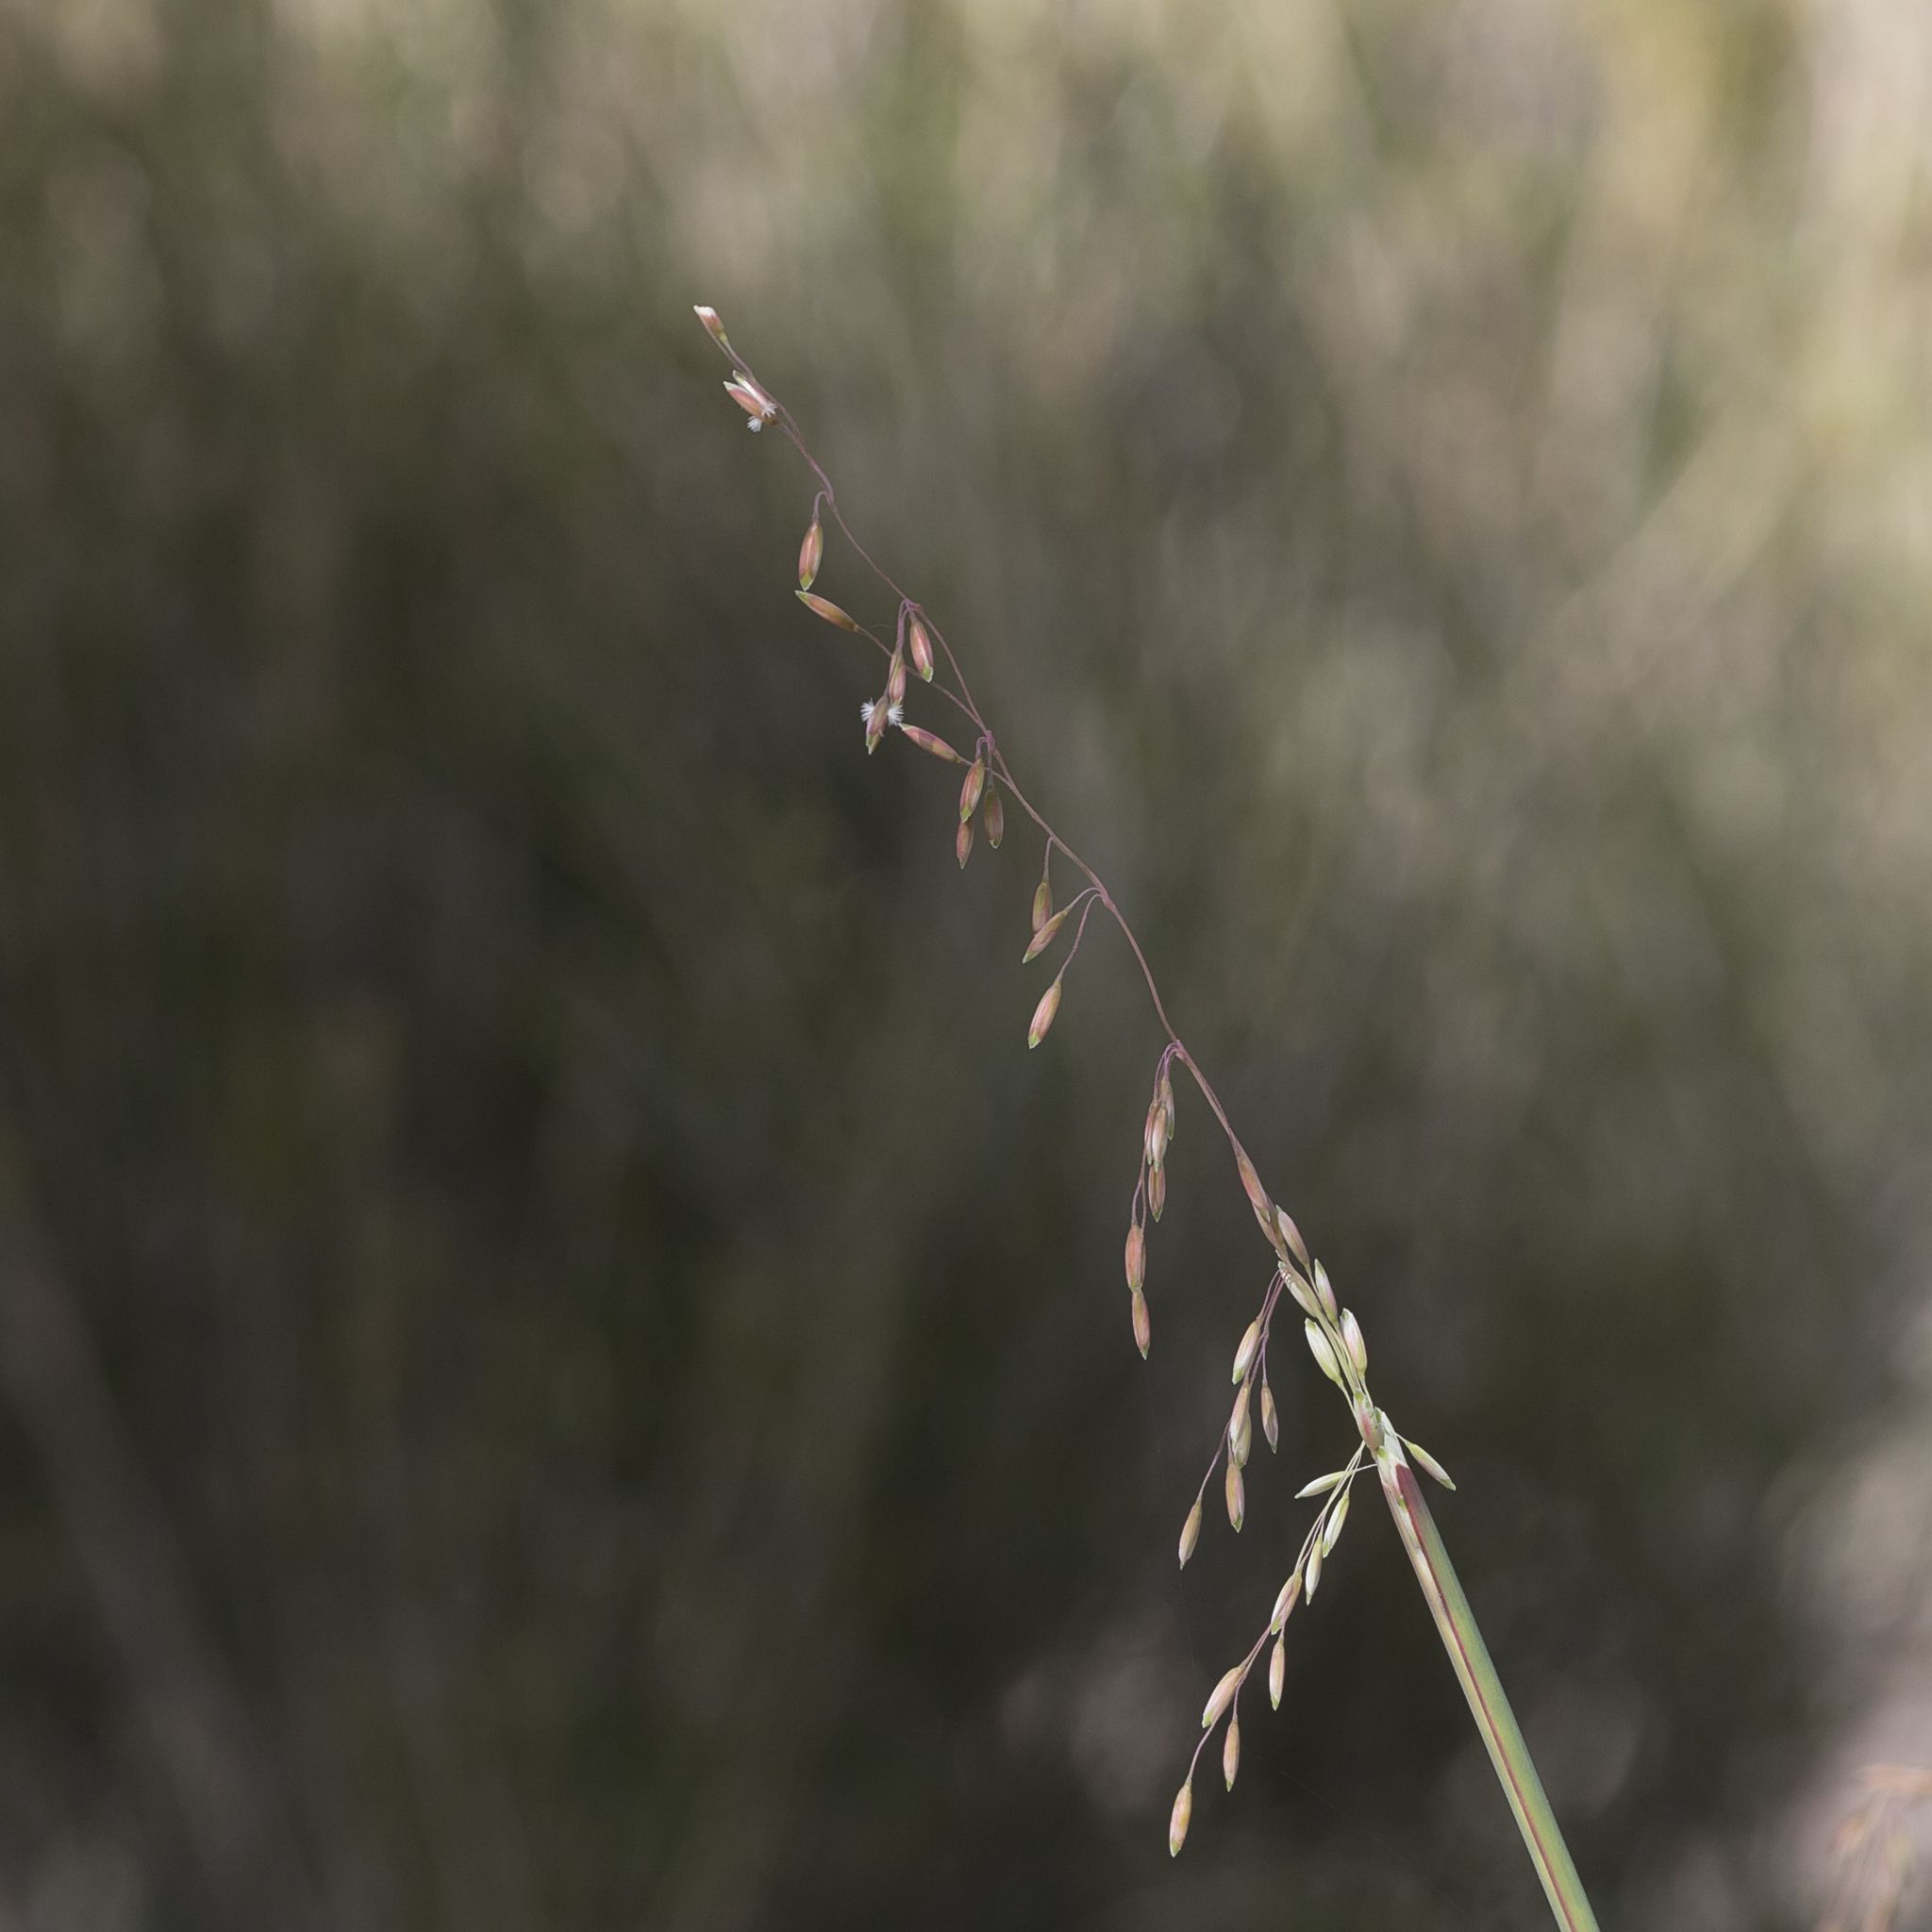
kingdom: Plantae
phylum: Tracheophyta
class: Liliopsida
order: Poales
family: Poaceae
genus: Ehrharta
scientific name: Ehrharta calycina
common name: Perennial veldtgrass
